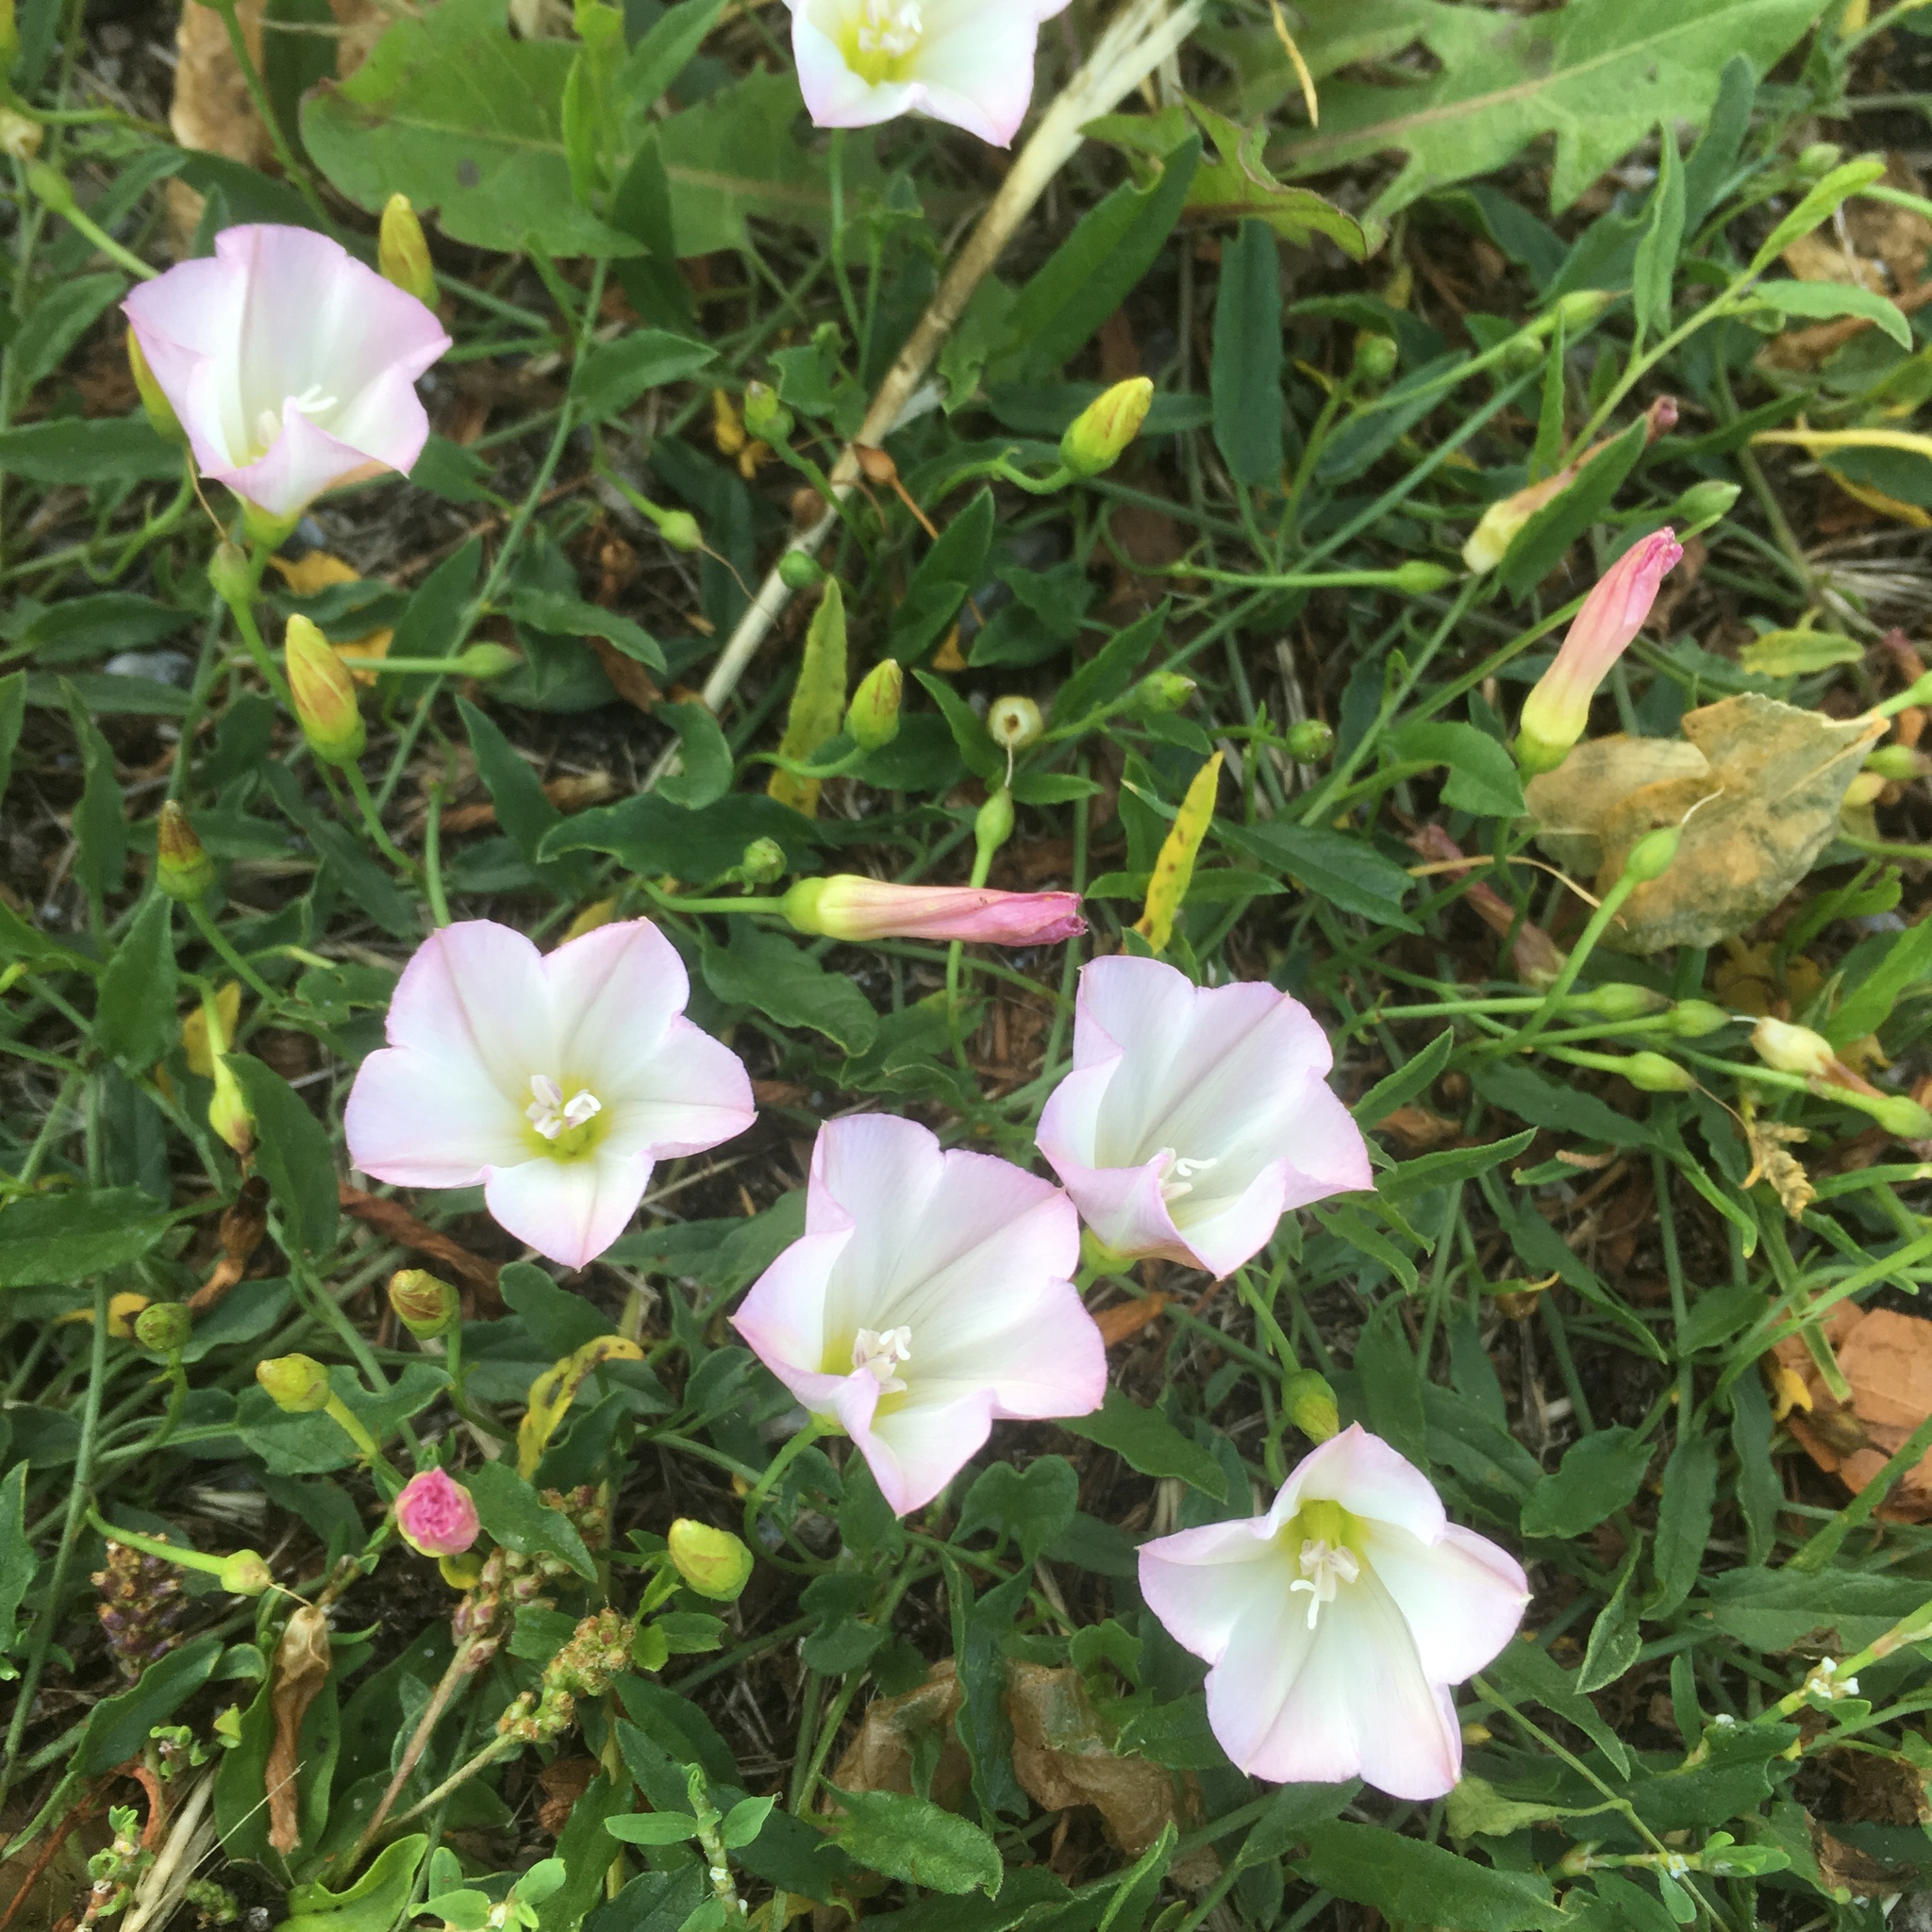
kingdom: Plantae
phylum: Tracheophyta
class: Magnoliopsida
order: Solanales
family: Convolvulaceae
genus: Convolvulus
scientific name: Convolvulus arvensis
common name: Field bindweed
